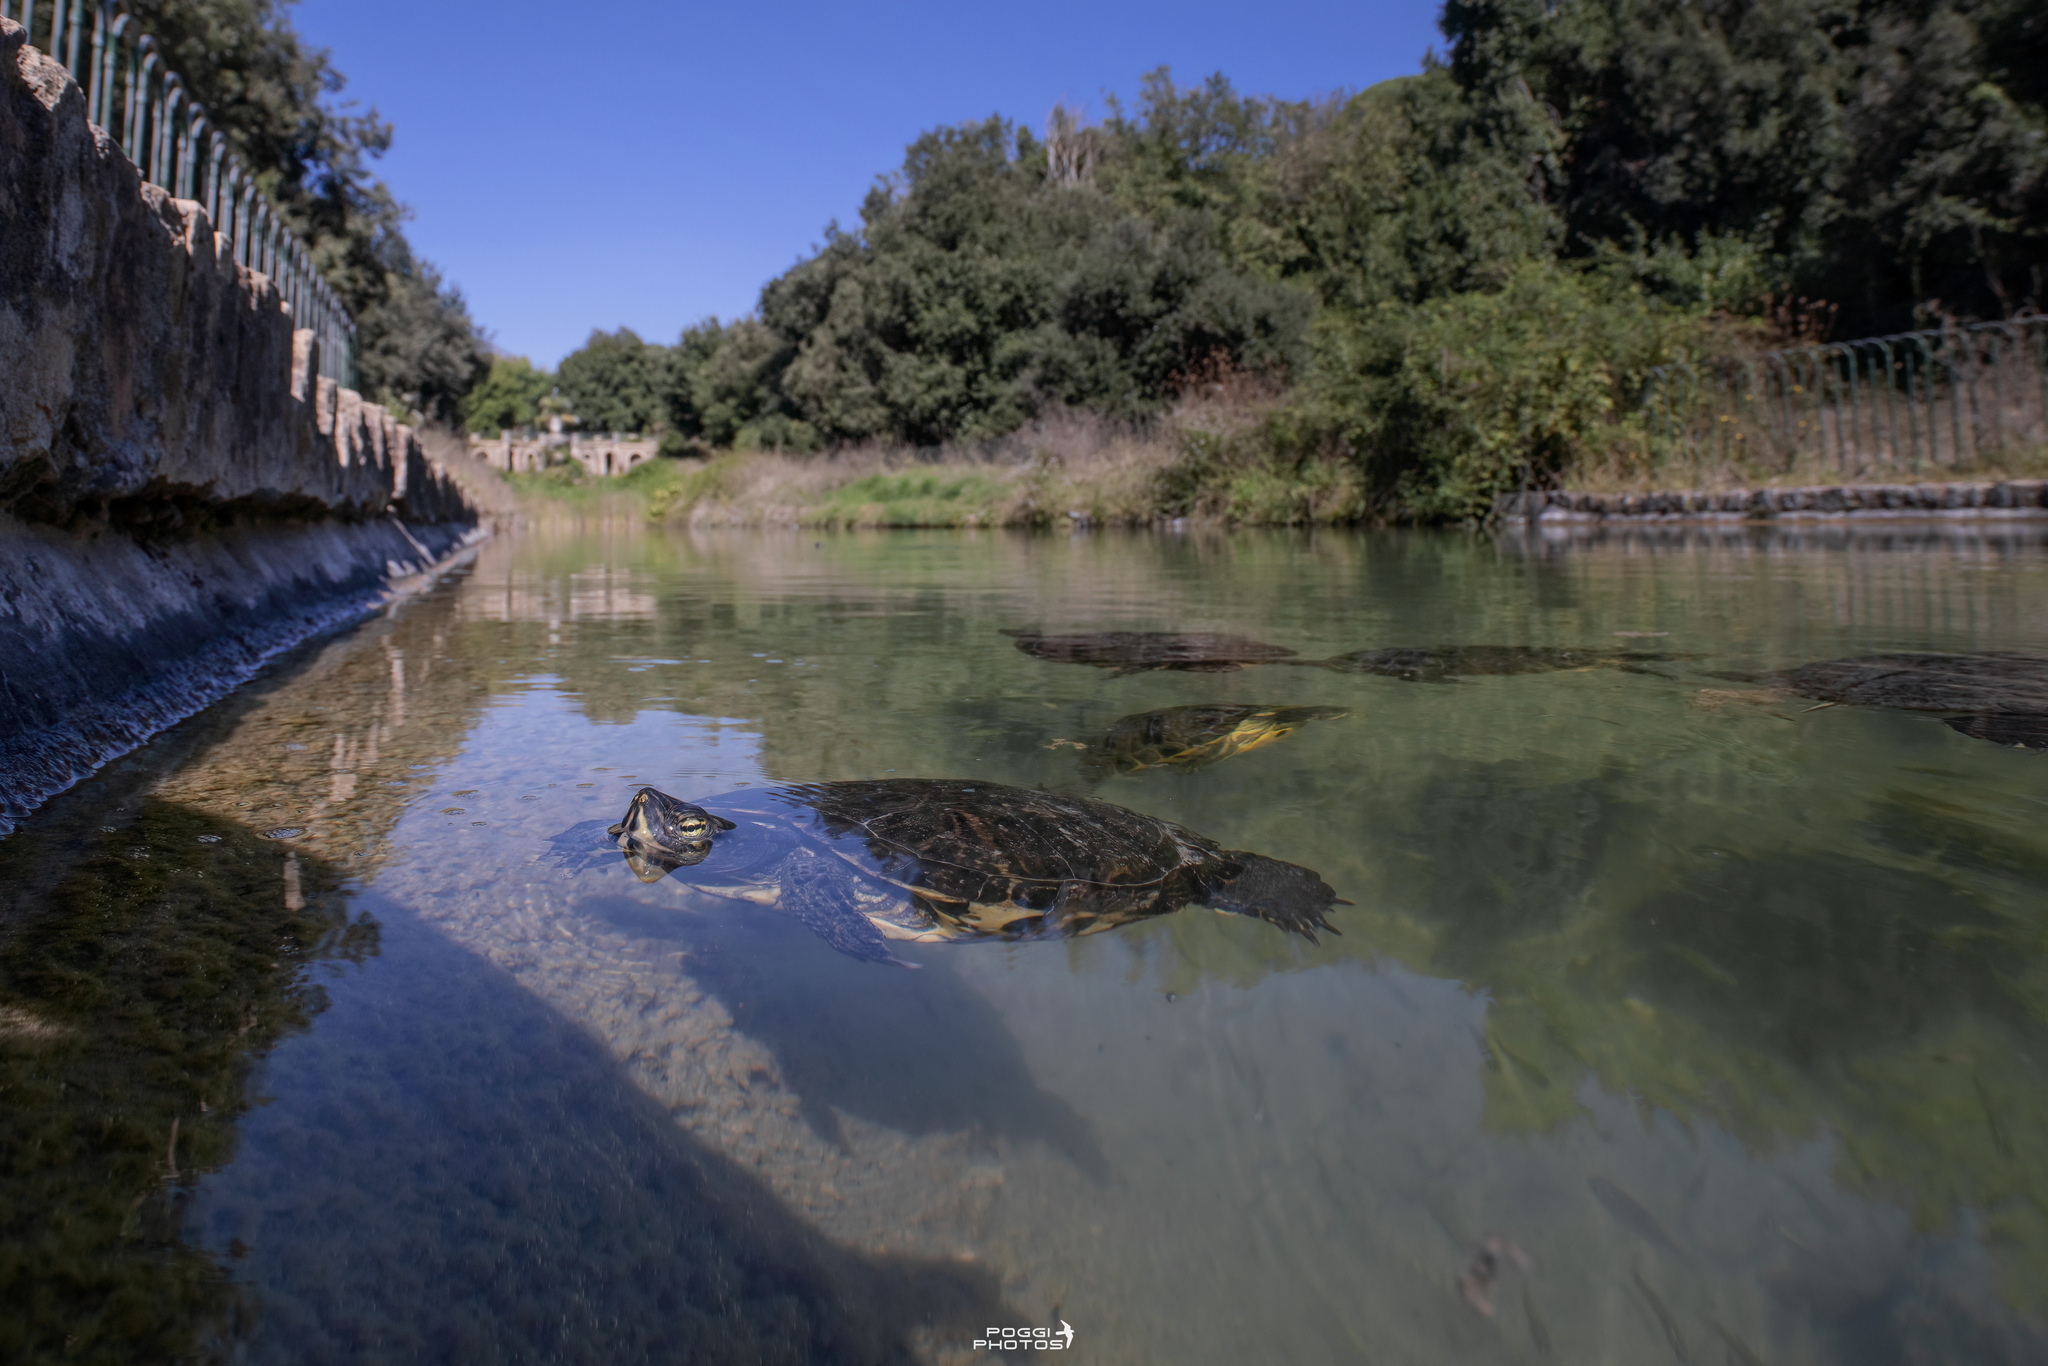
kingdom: Animalia
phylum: Chordata
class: Testudines
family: Emydidae
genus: Trachemys
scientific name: Trachemys scripta
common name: Slider
